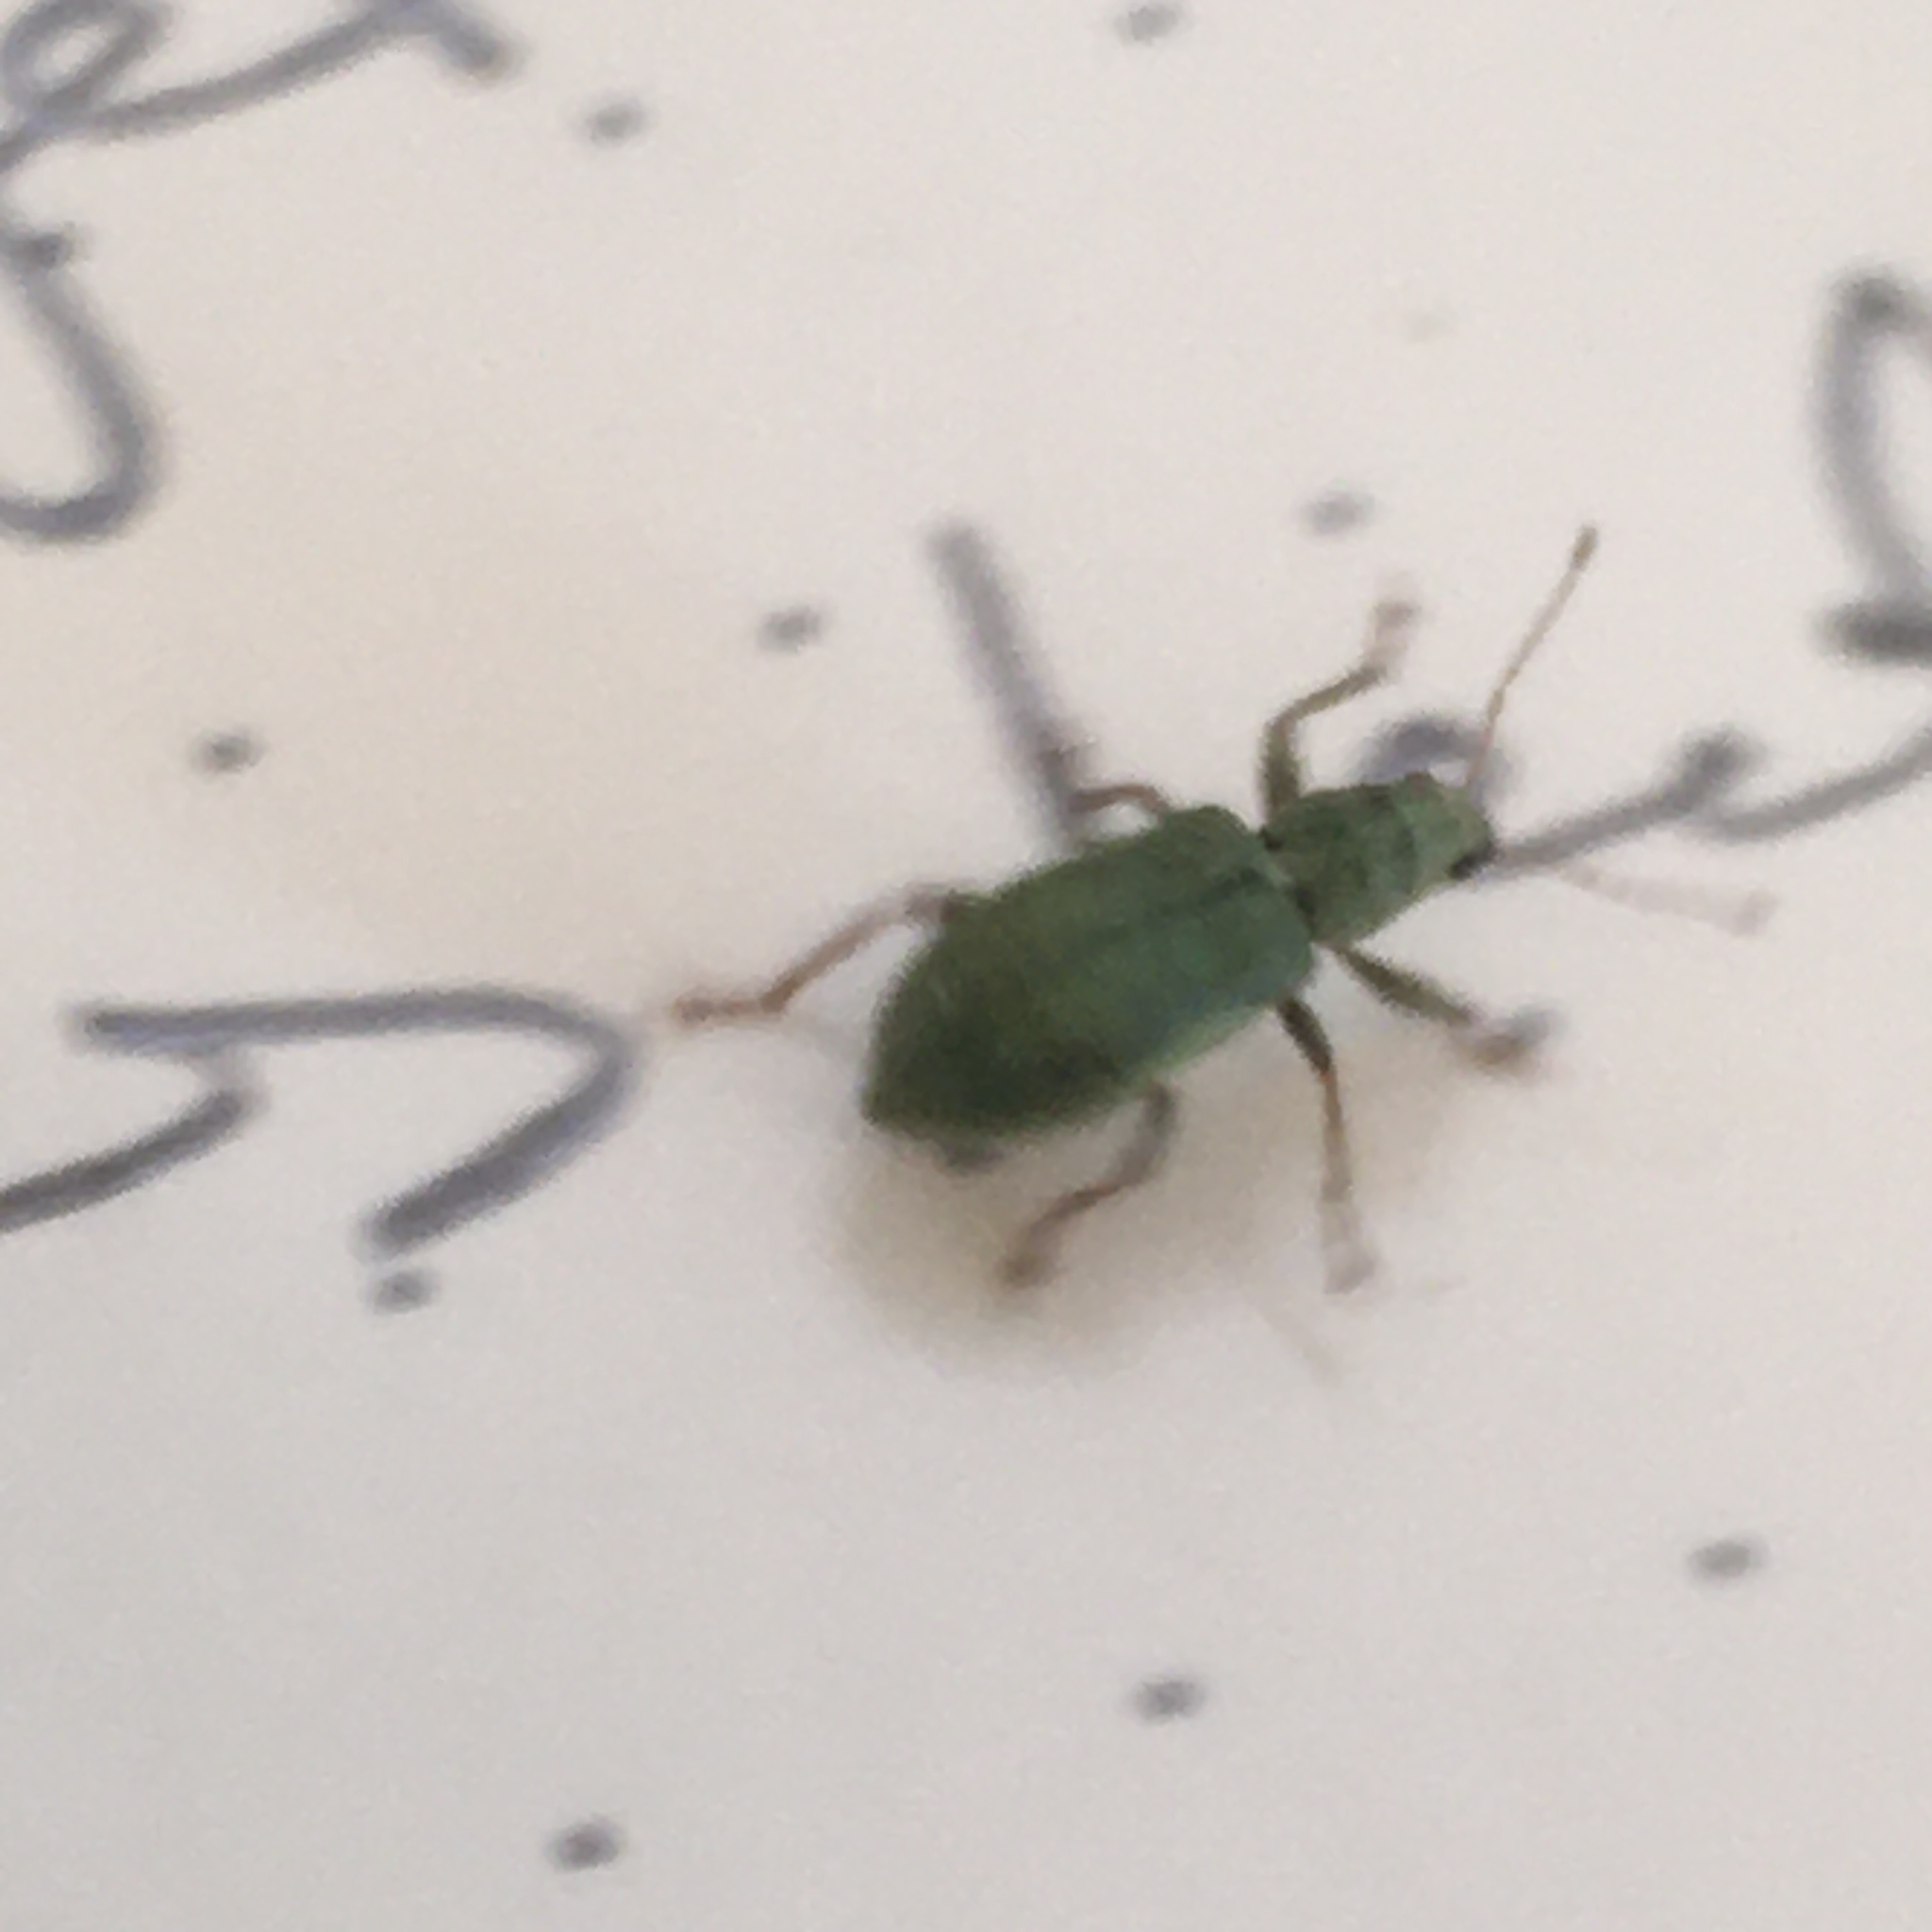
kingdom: Animalia
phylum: Arthropoda
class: Insecta
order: Coleoptera
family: Curculionidae
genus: Pachyrhinus
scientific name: Pachyrhinus lethierryi
